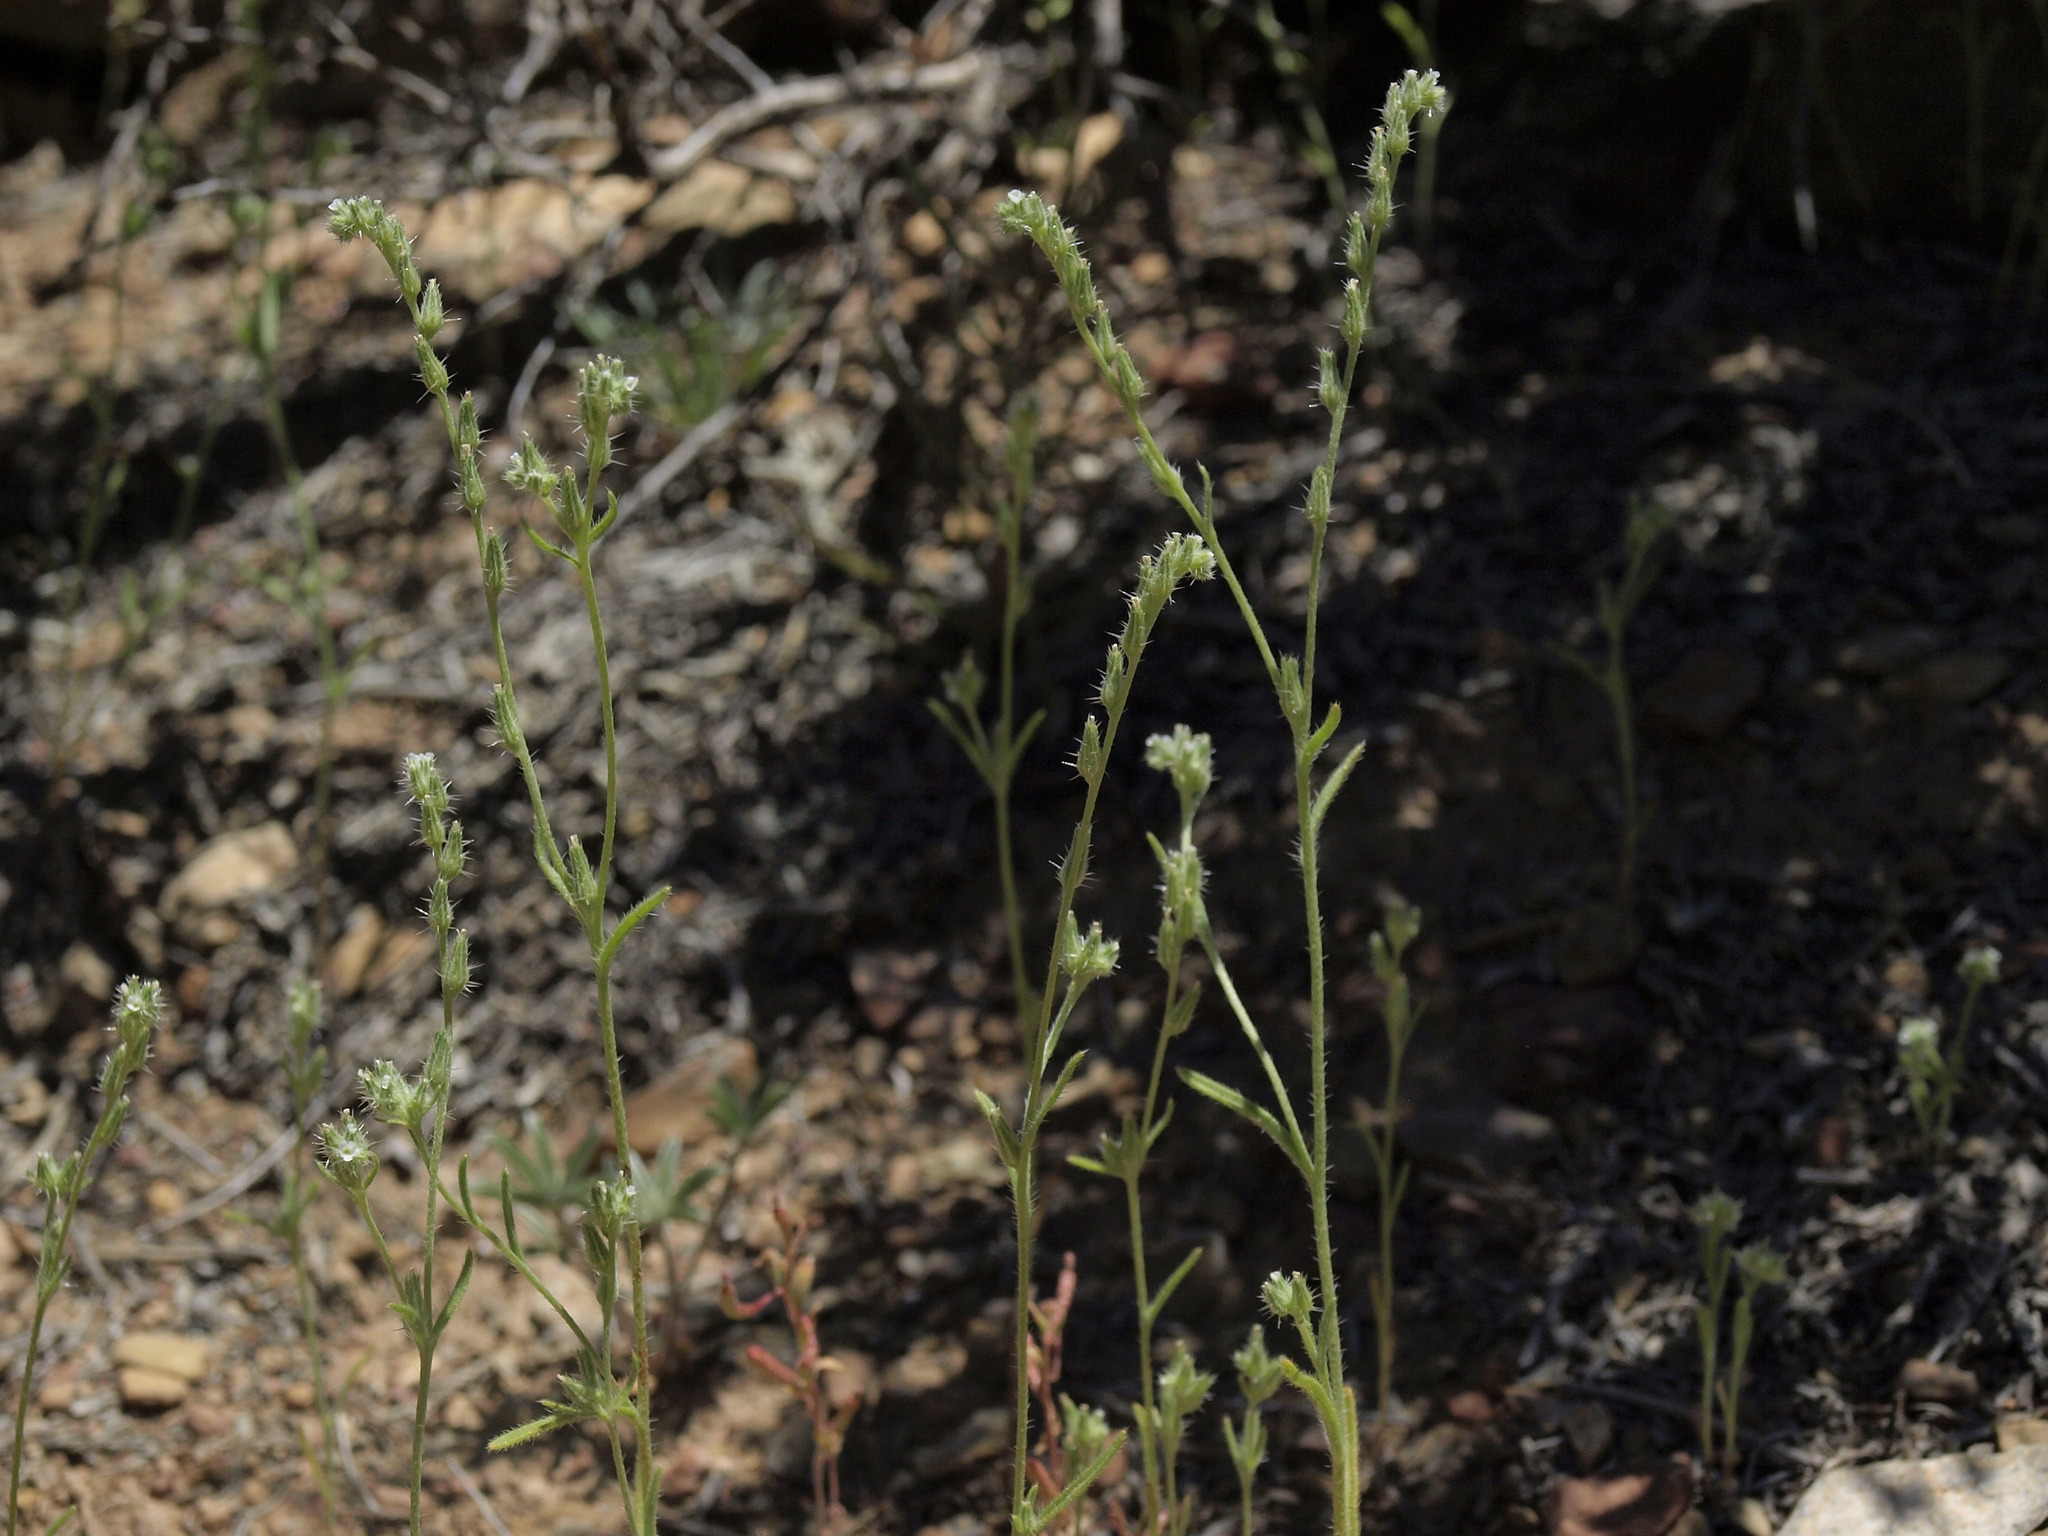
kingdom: Plantae
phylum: Tracheophyta
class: Magnoliopsida
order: Boraginales
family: Boraginaceae
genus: Cryptantha
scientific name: Cryptantha scoparia
